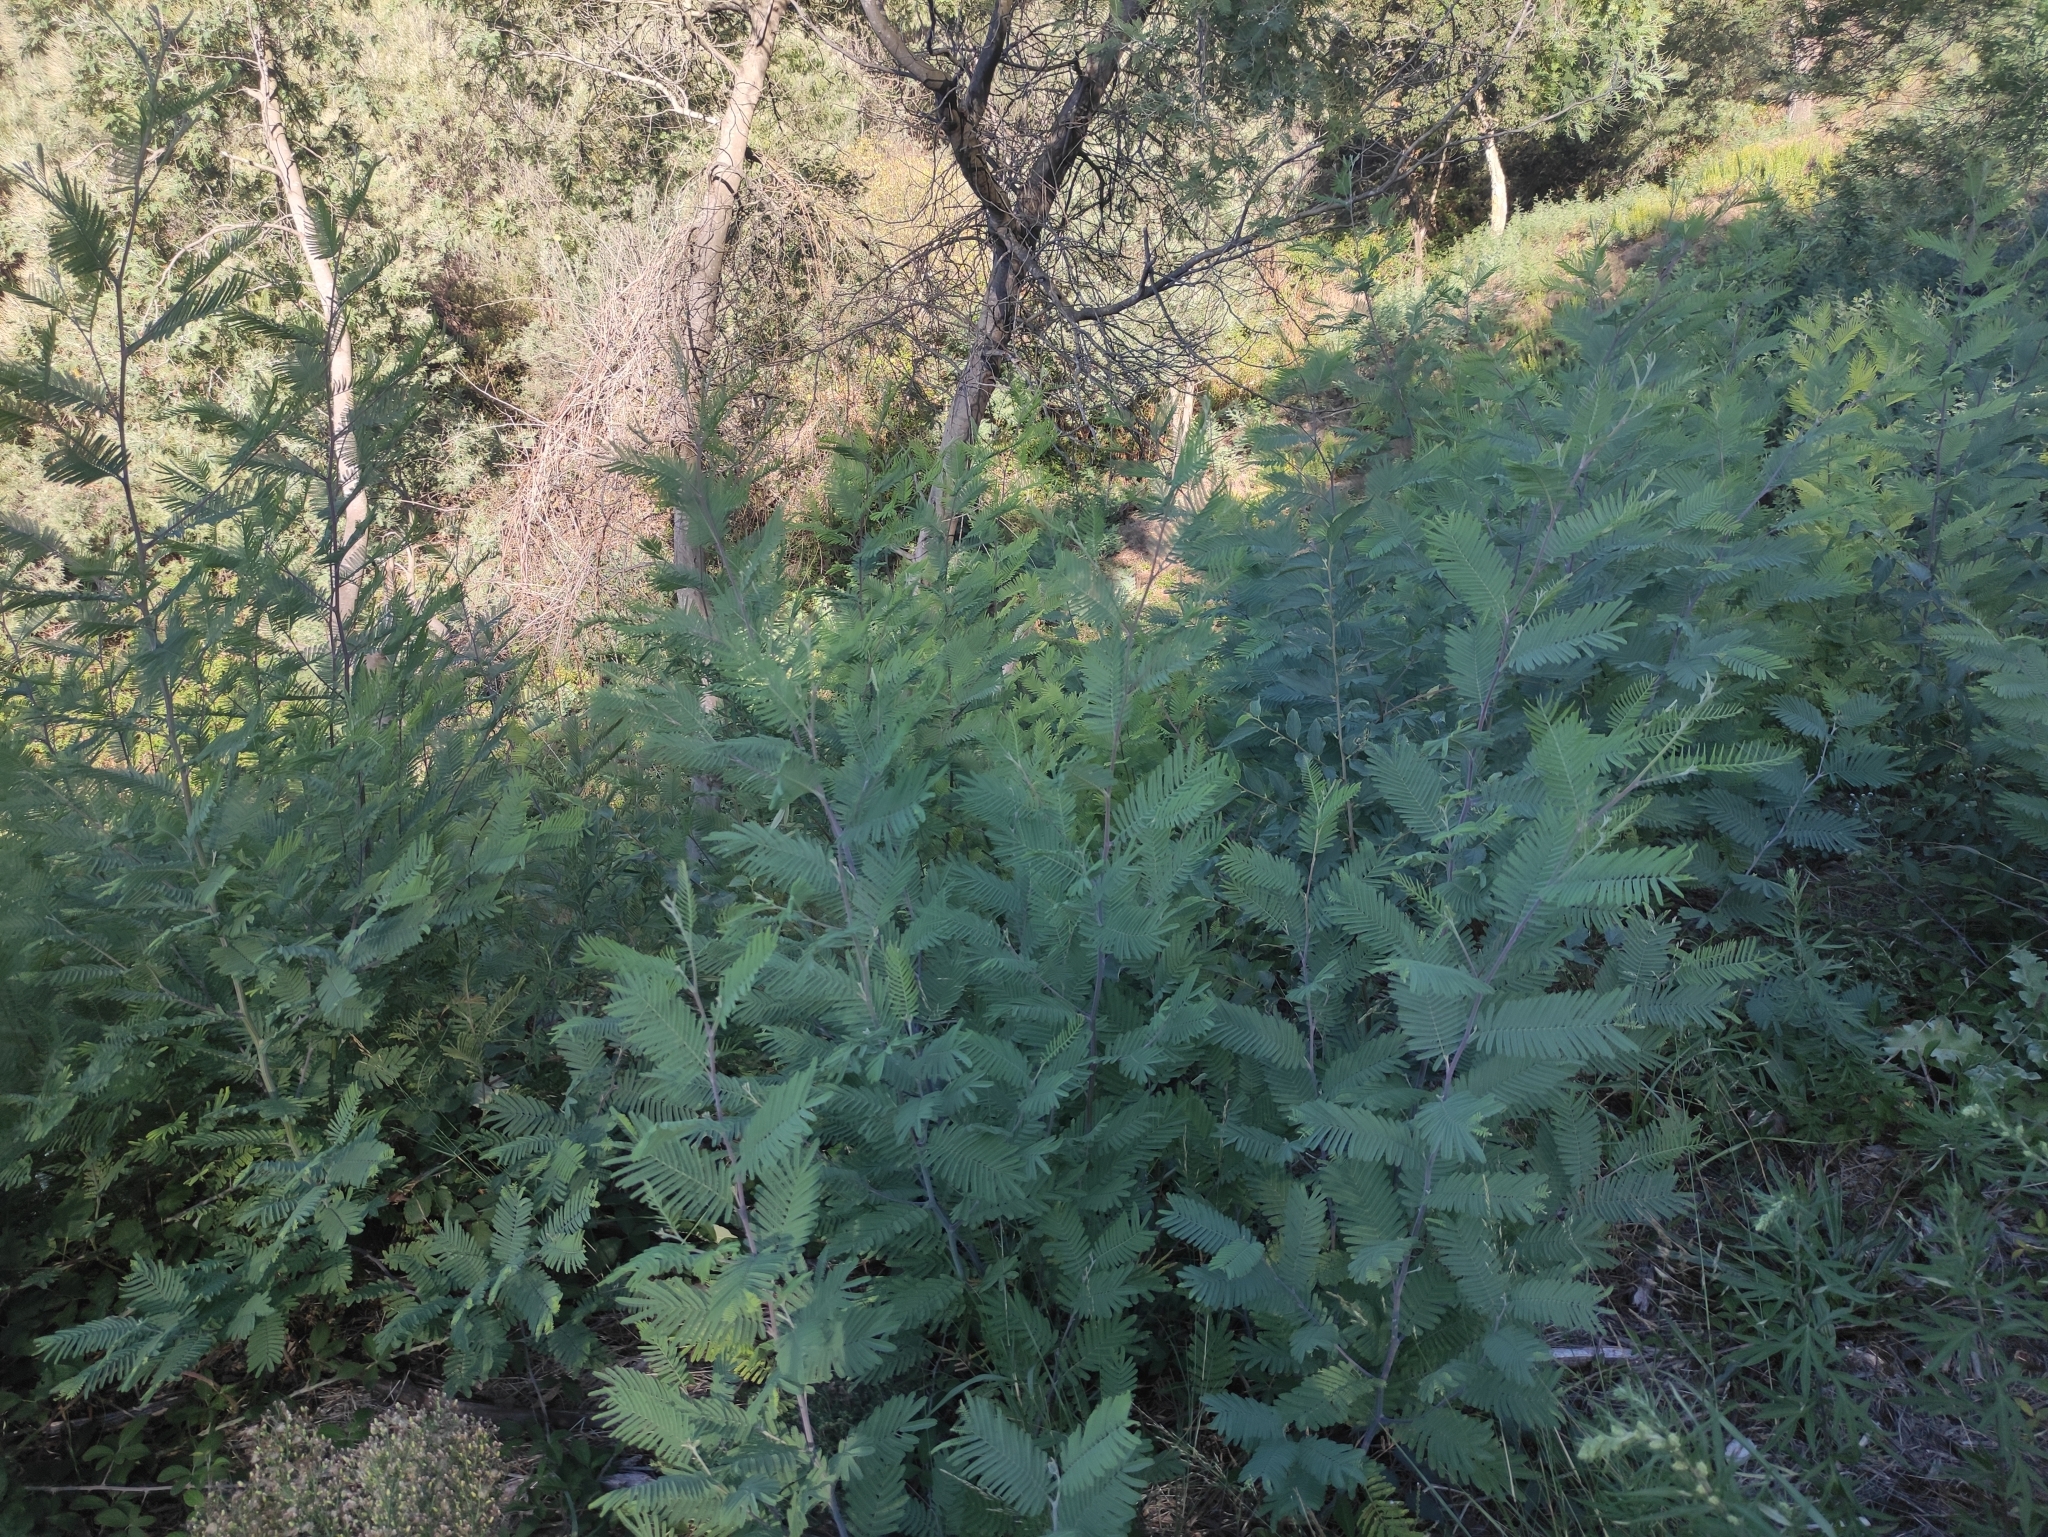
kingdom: Plantae
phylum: Tracheophyta
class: Magnoliopsida
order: Fabales
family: Fabaceae
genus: Acacia
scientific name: Acacia dealbata
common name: Silver wattle
